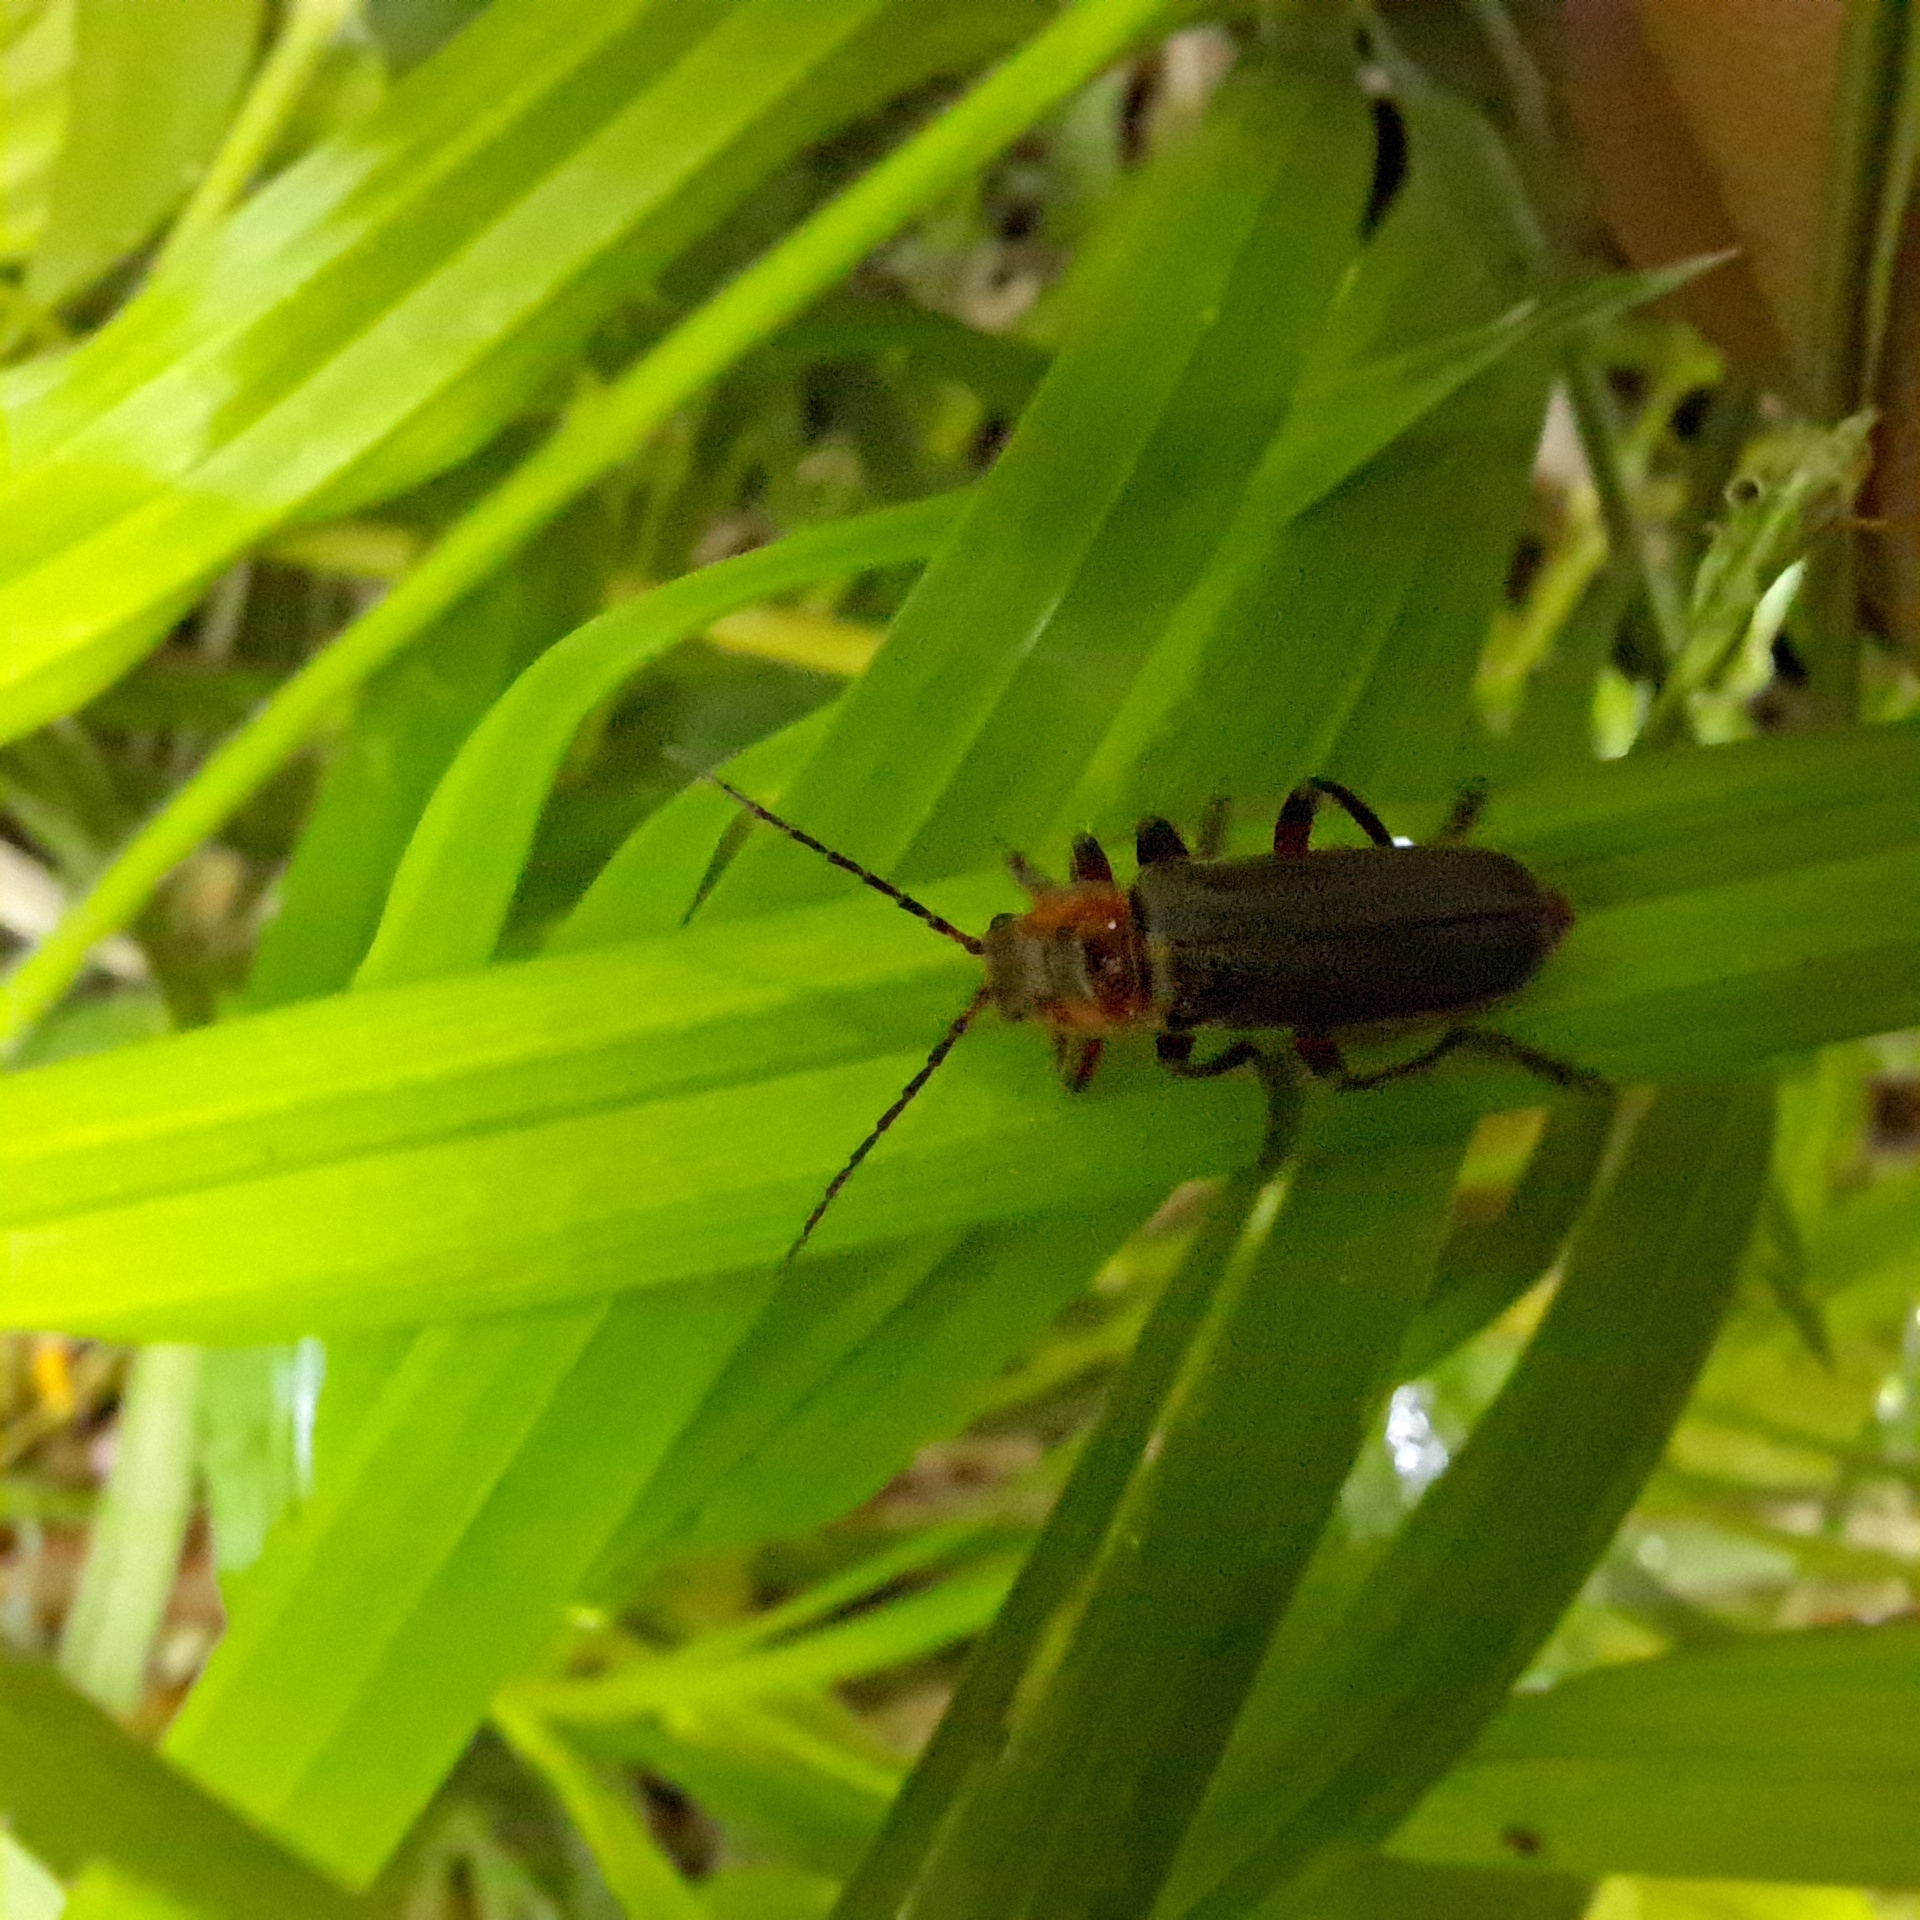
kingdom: Animalia
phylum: Arthropoda
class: Insecta
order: Coleoptera
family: Cantharidae
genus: Cantharis
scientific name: Cantharis rustica
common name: Soldier beetle
